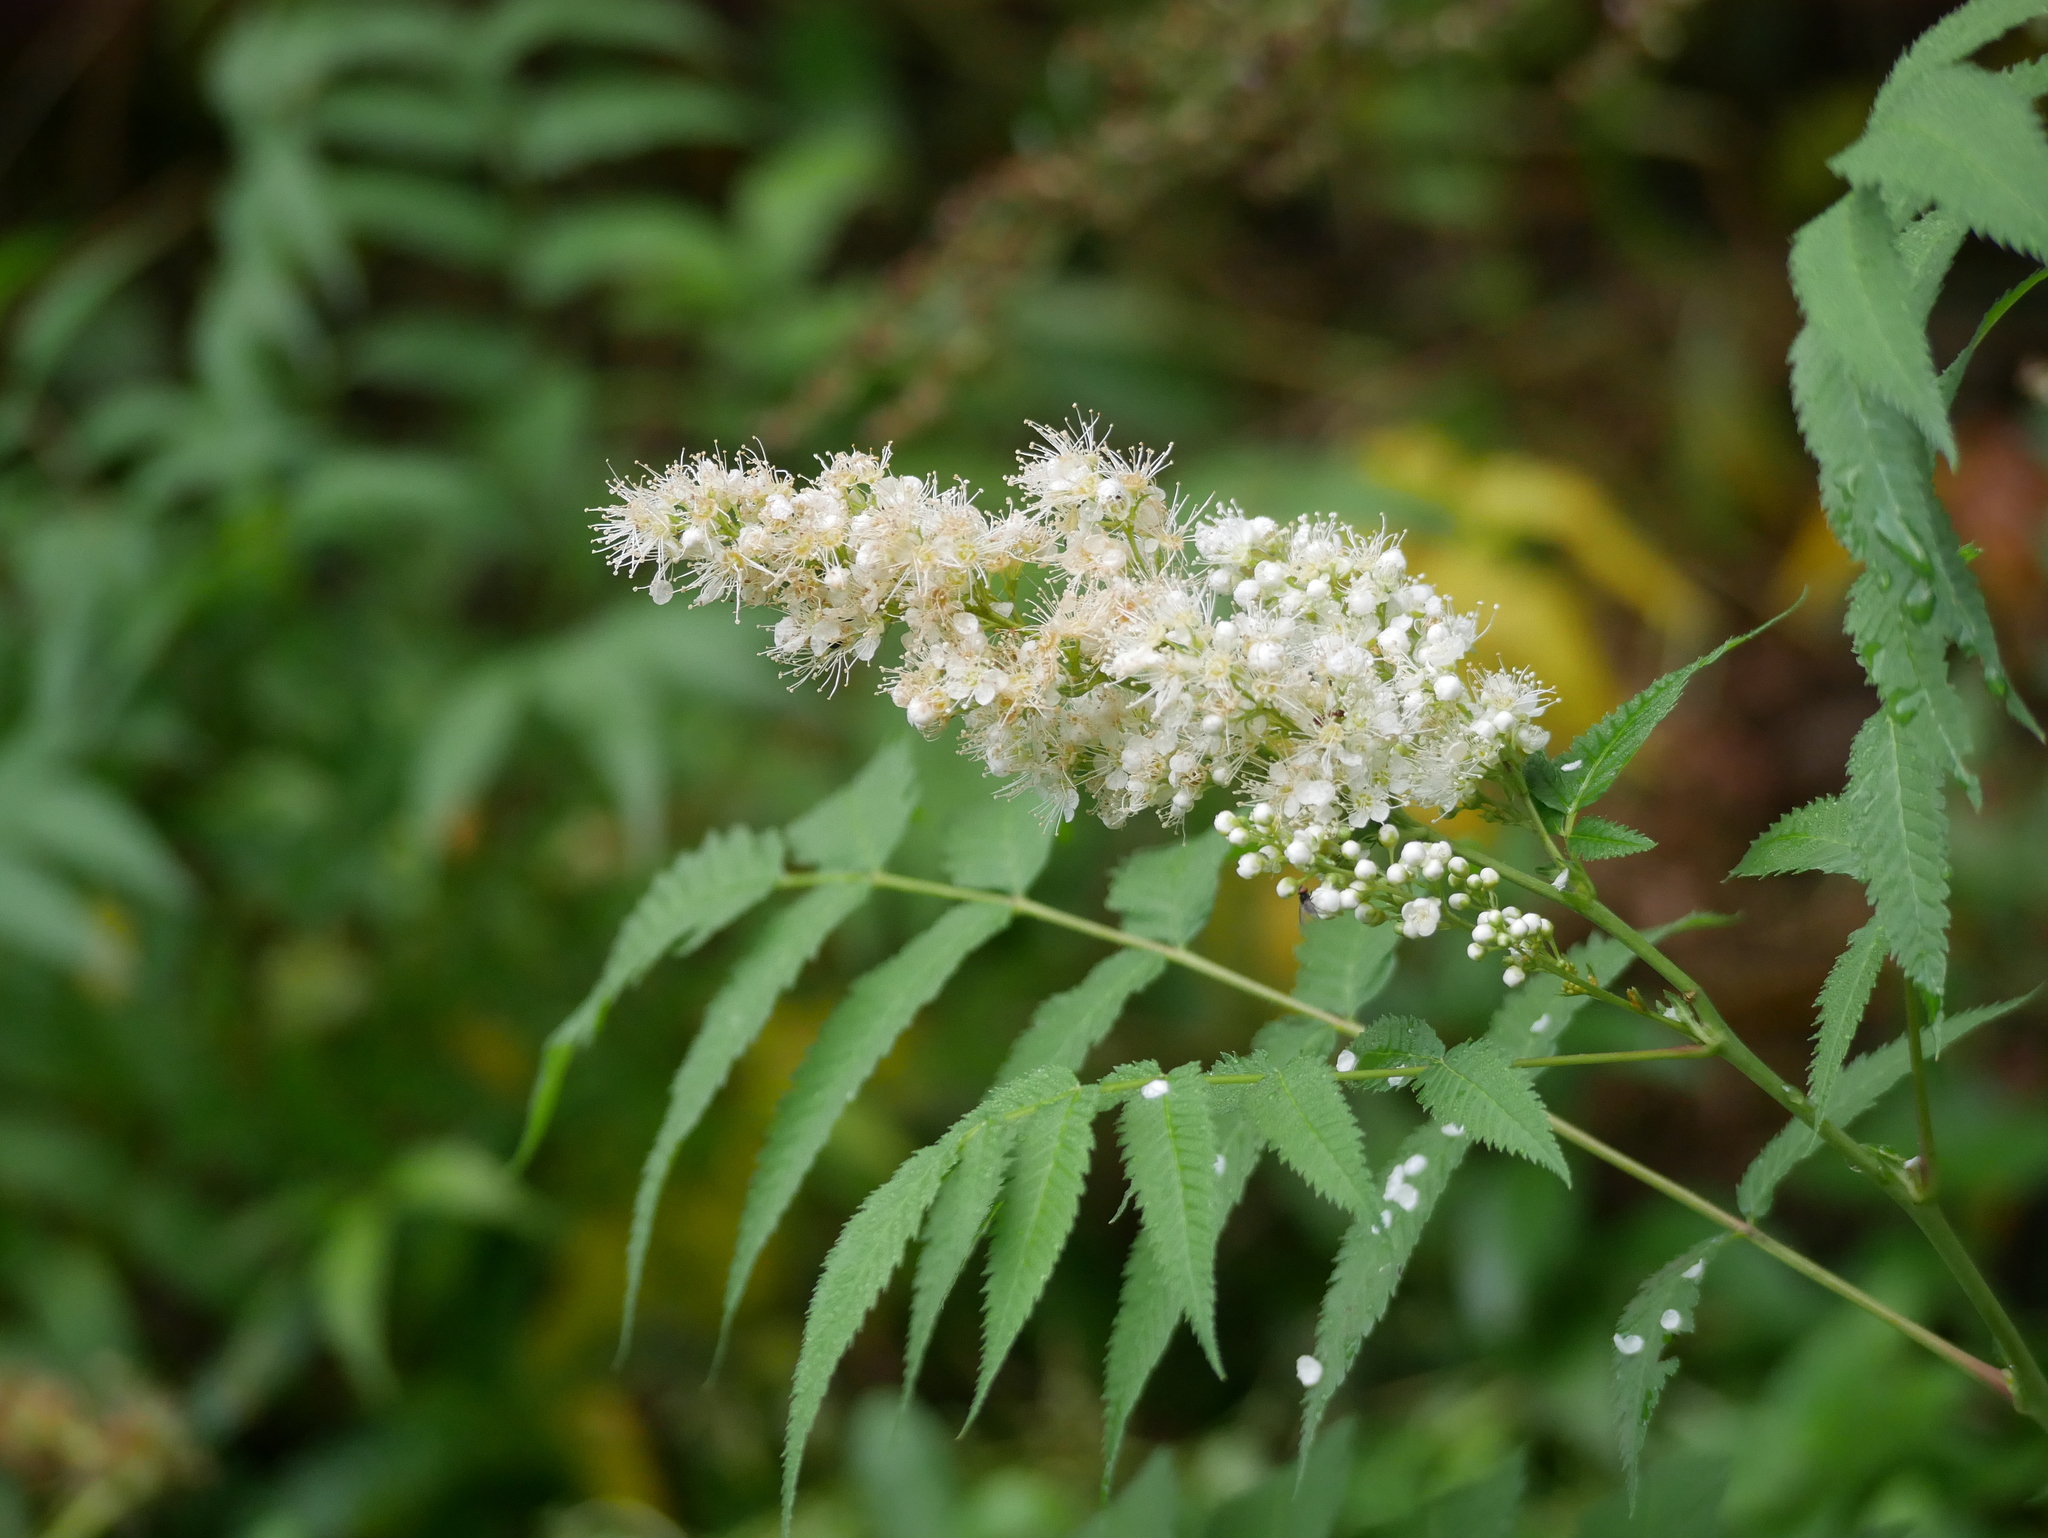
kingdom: Plantae
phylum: Tracheophyta
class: Magnoliopsida
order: Rosales
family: Rosaceae
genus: Sorbaria
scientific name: Sorbaria sorbifolia
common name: False spiraea
